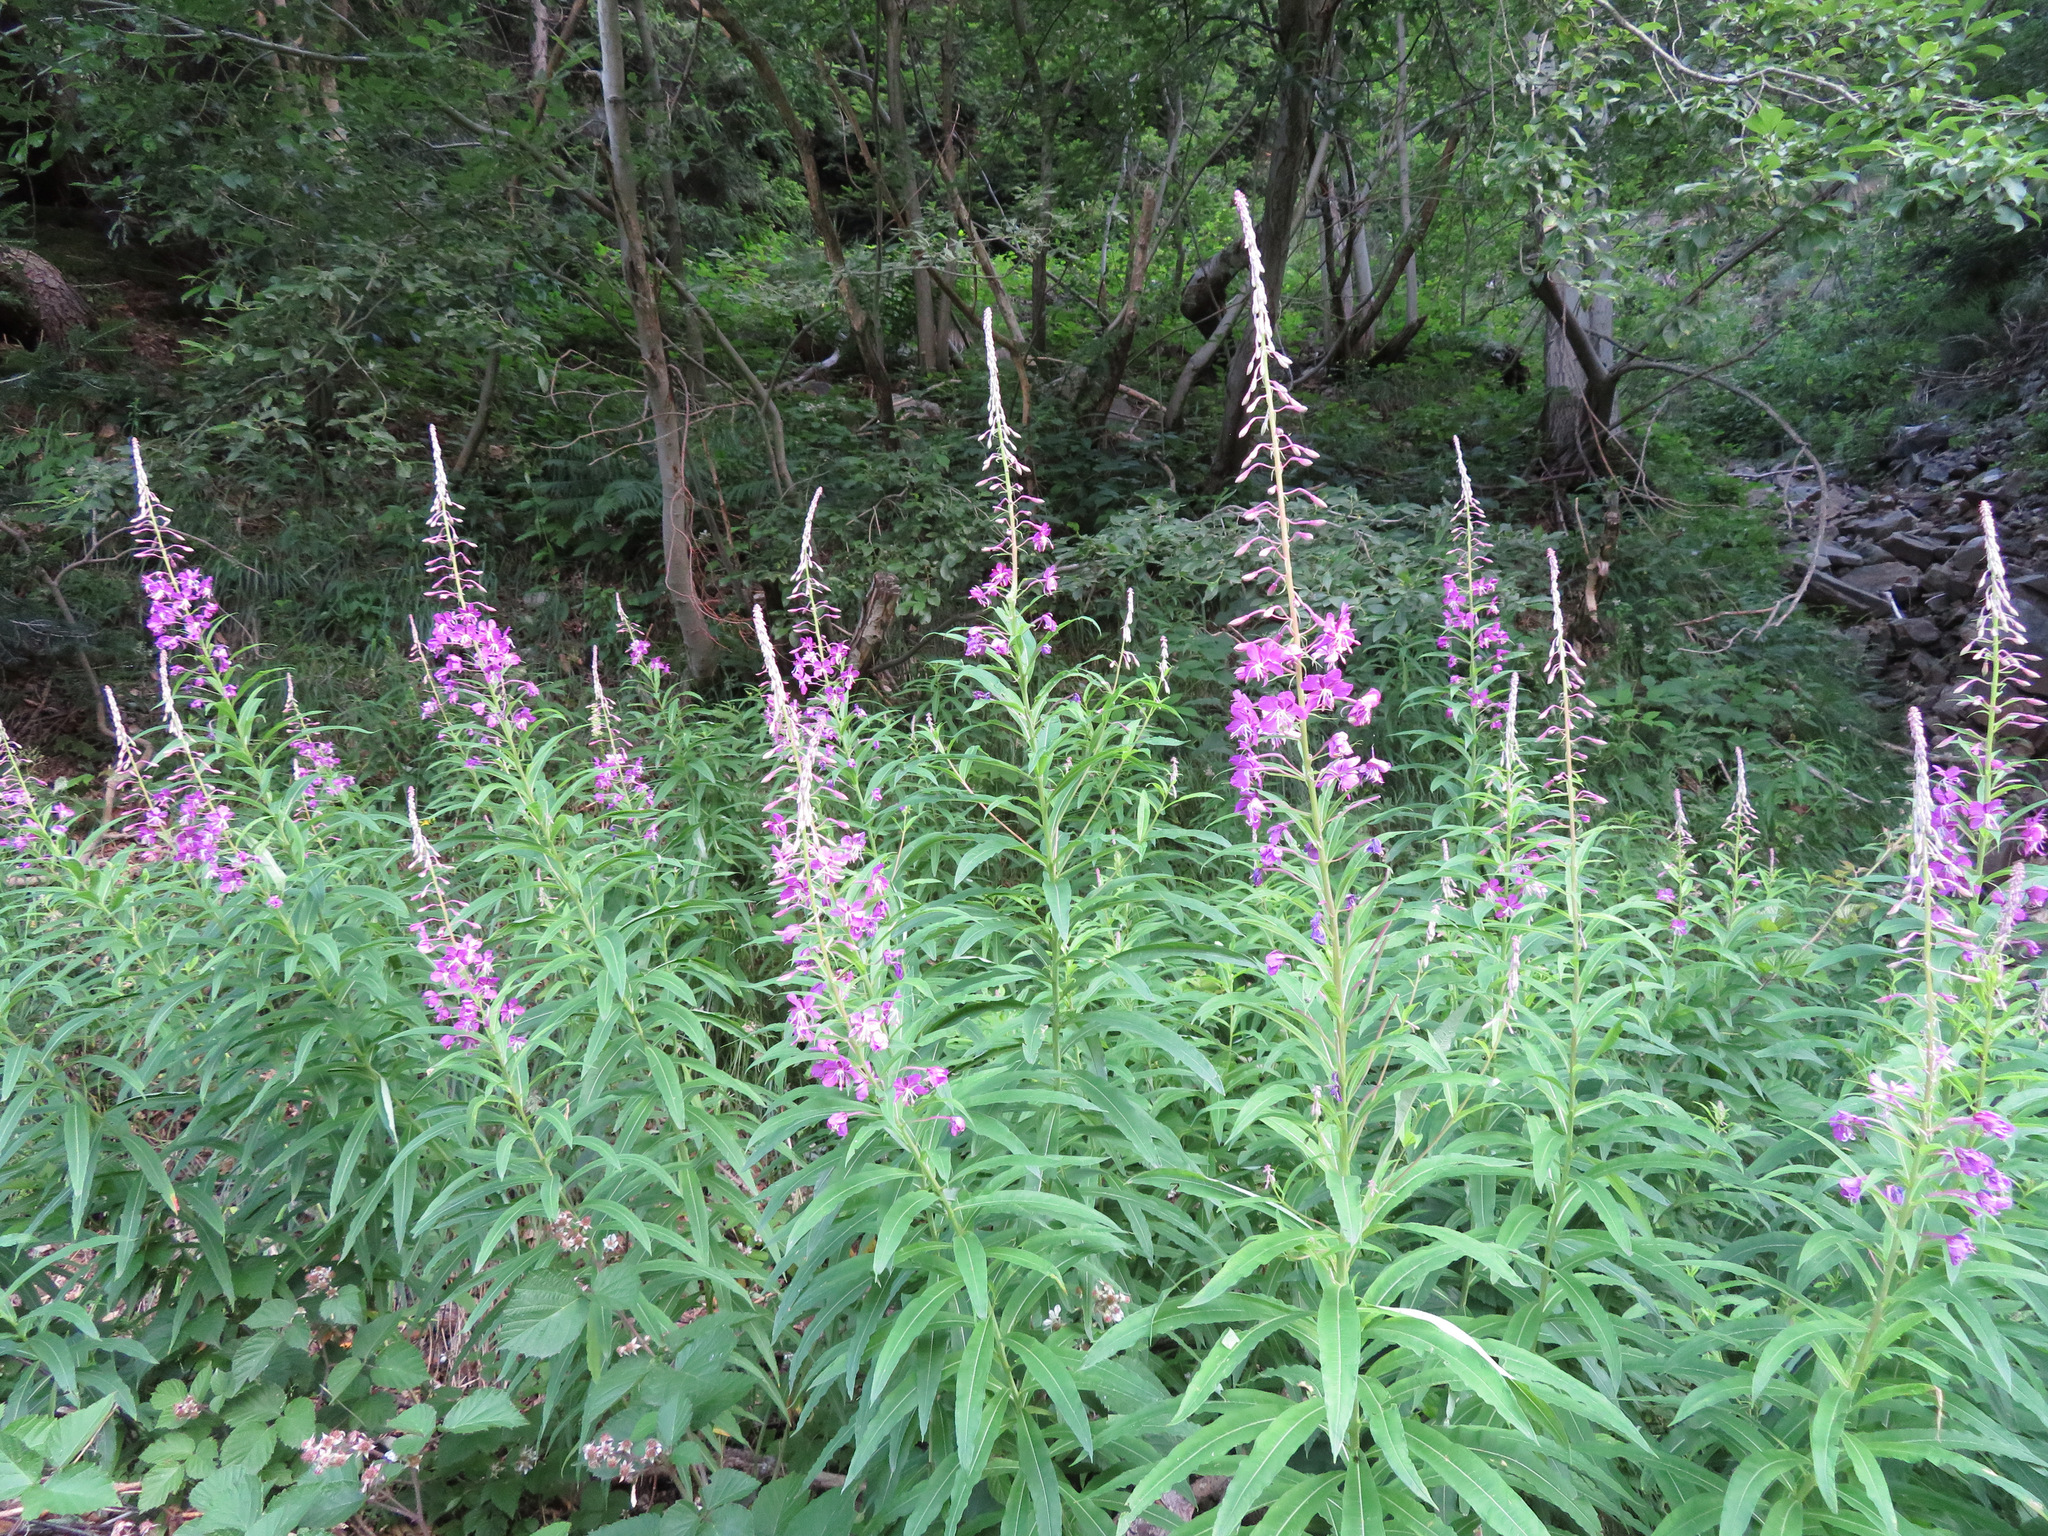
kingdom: Plantae
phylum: Tracheophyta
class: Magnoliopsida
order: Myrtales
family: Onagraceae
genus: Chamaenerion
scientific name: Chamaenerion angustifolium
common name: Fireweed
